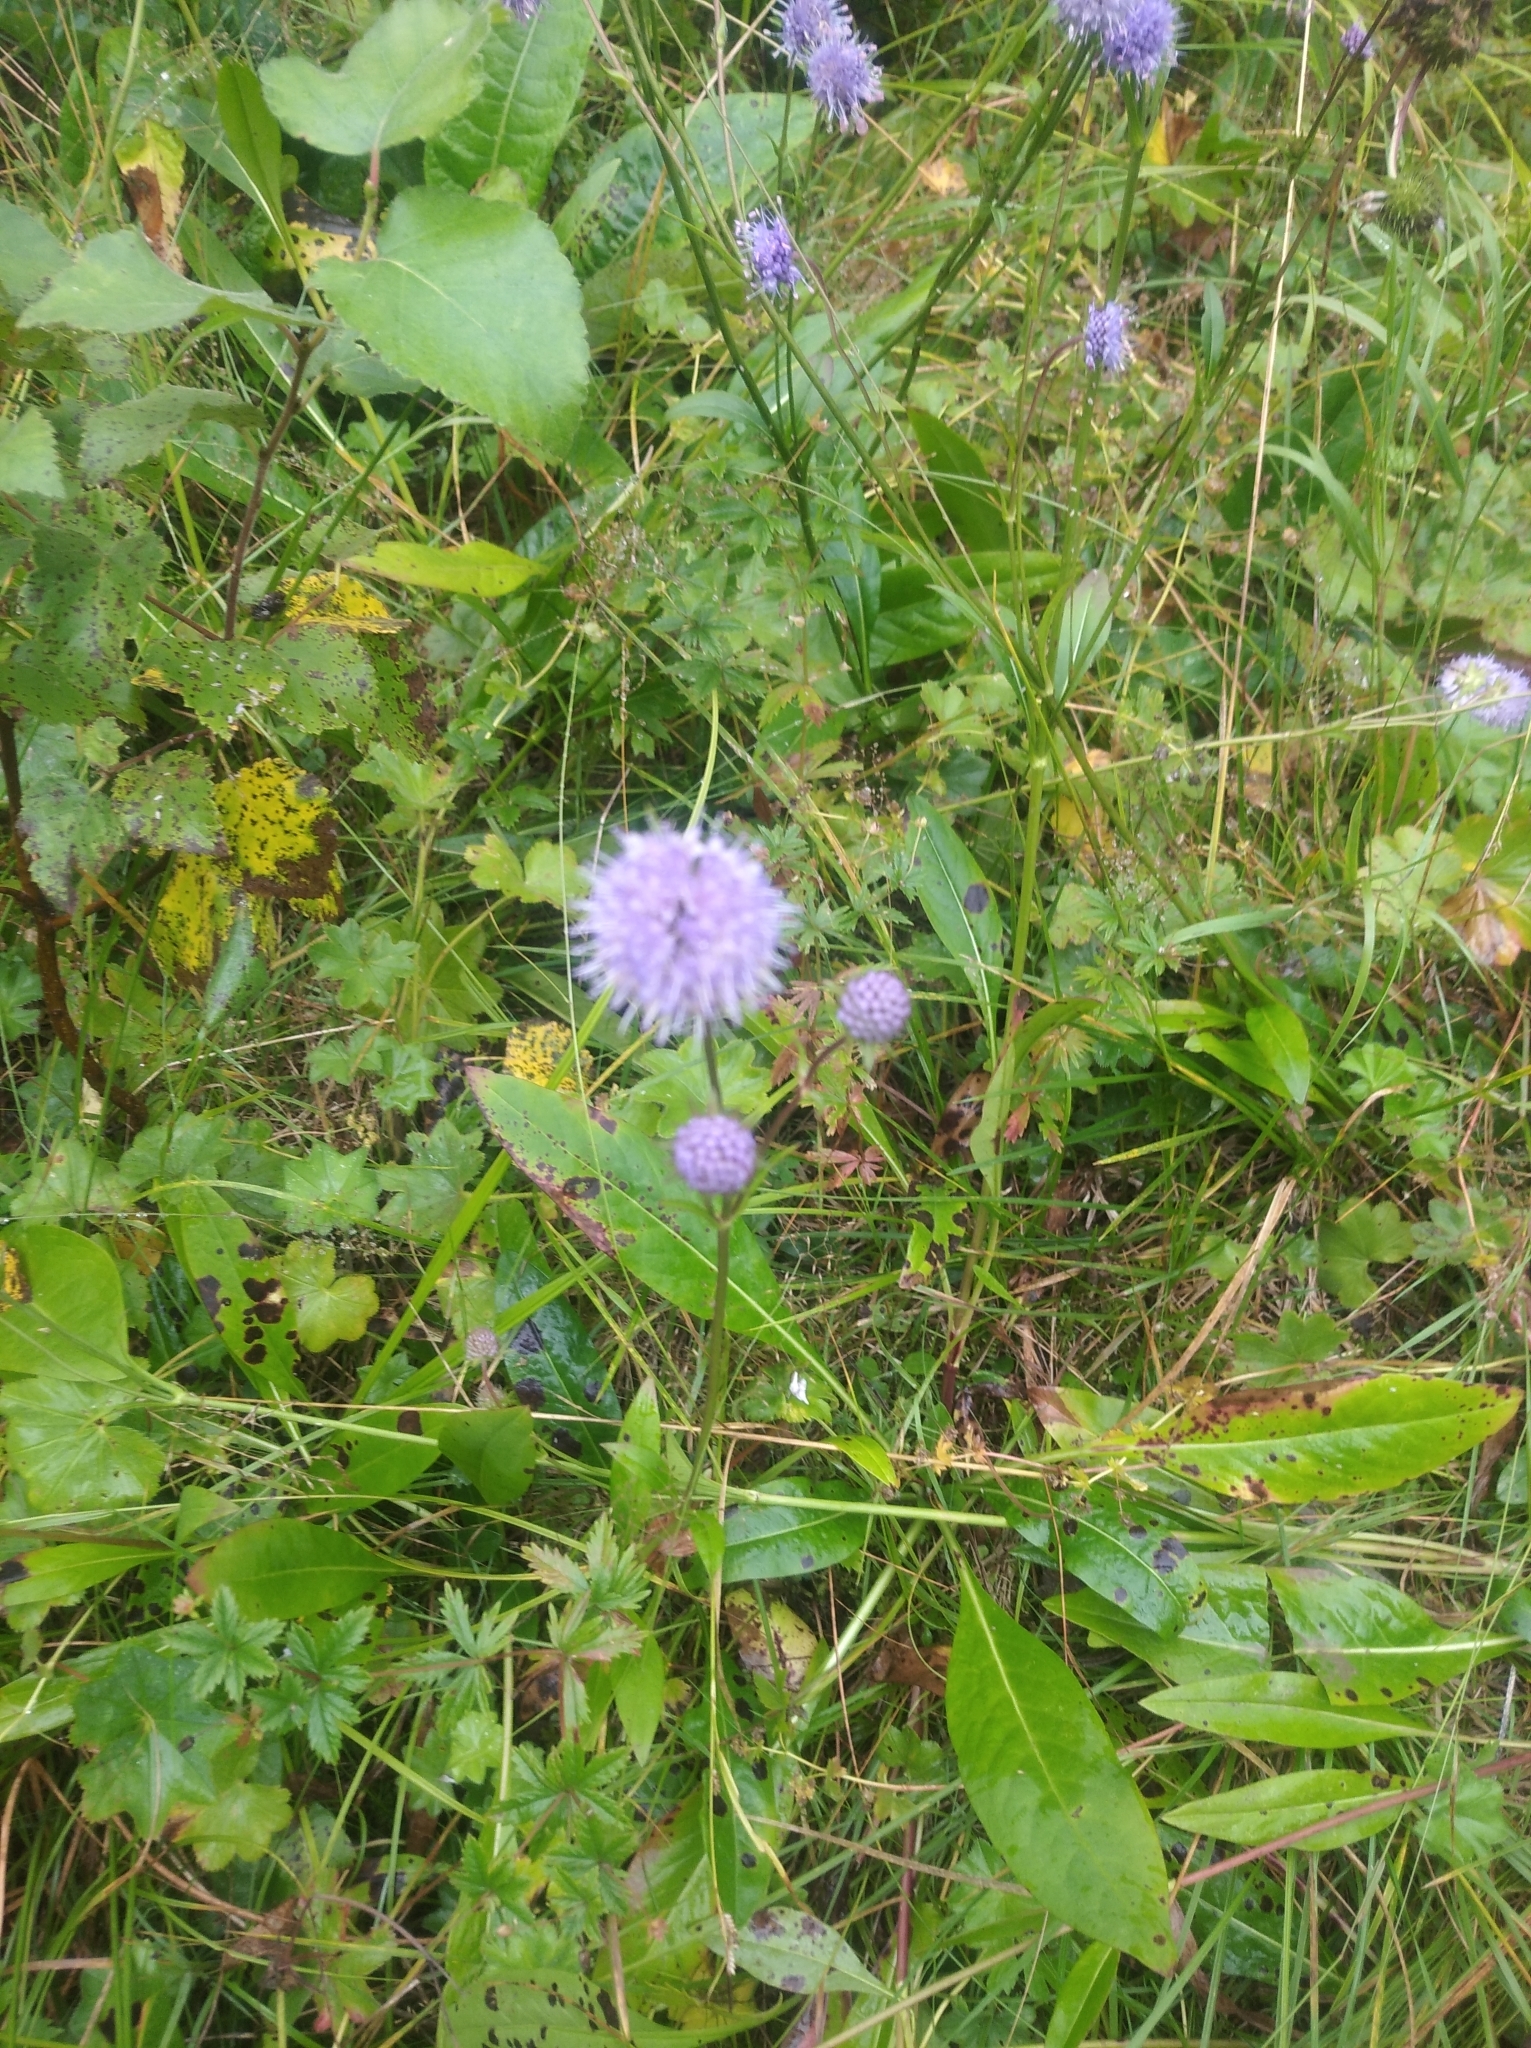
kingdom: Plantae
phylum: Tracheophyta
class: Magnoliopsida
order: Dipsacales
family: Caprifoliaceae
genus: Succisa
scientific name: Succisa pratensis
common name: Devil's-bit
